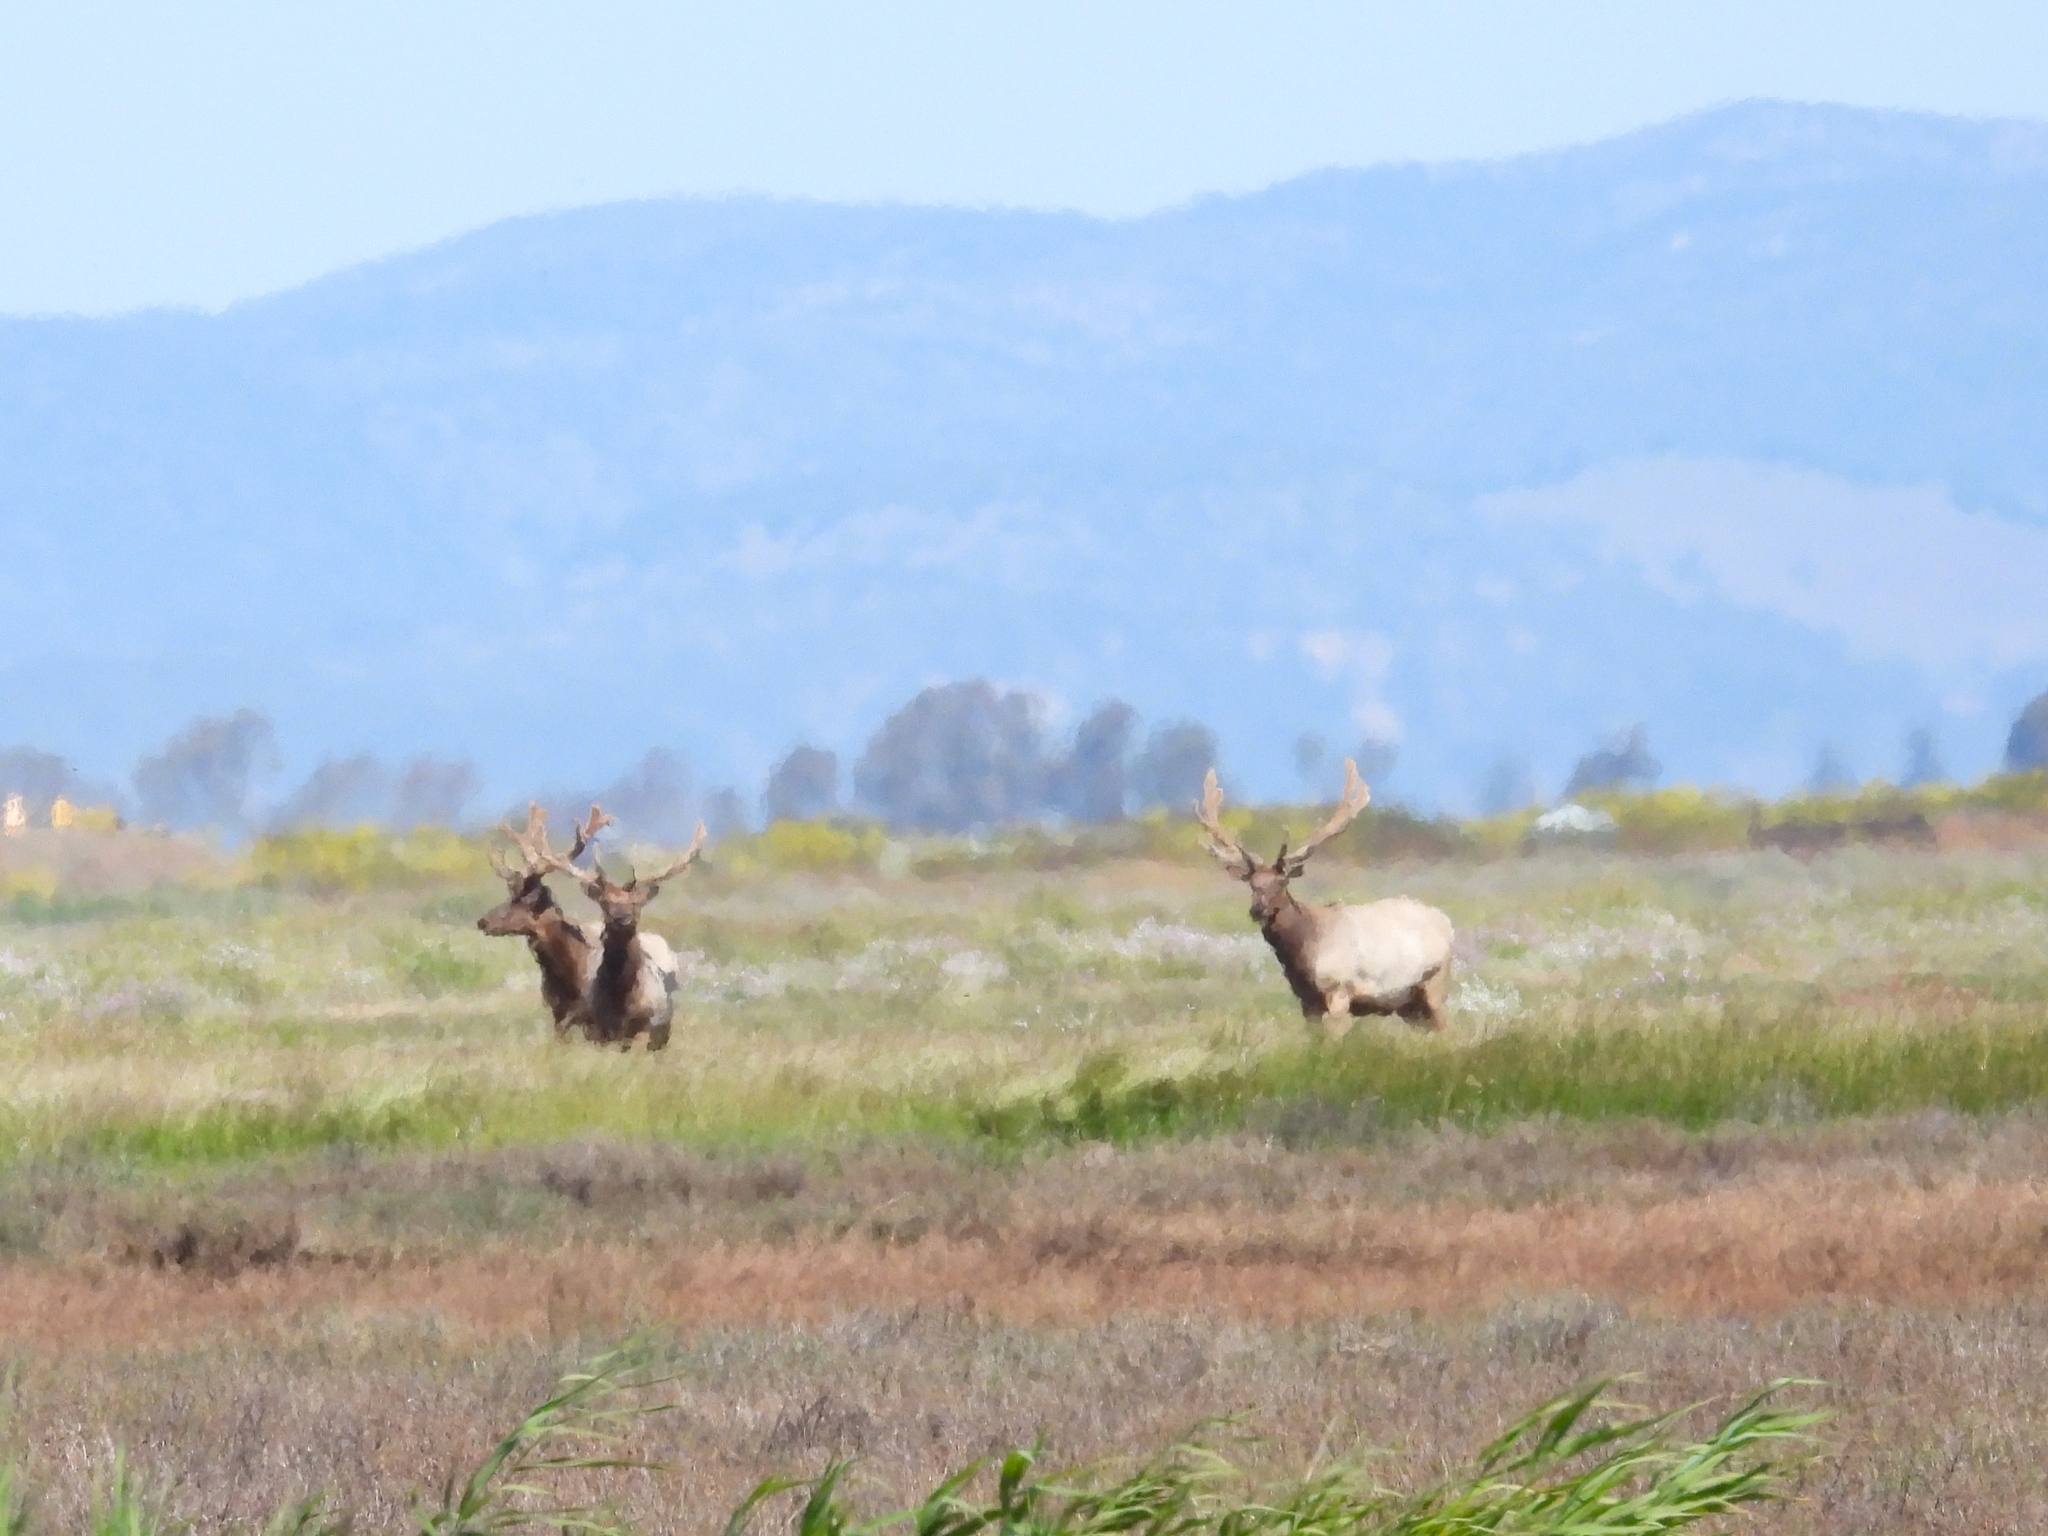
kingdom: Animalia
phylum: Chordata
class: Mammalia
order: Artiodactyla
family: Cervidae
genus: Cervus
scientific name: Cervus elaphus
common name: Red deer
